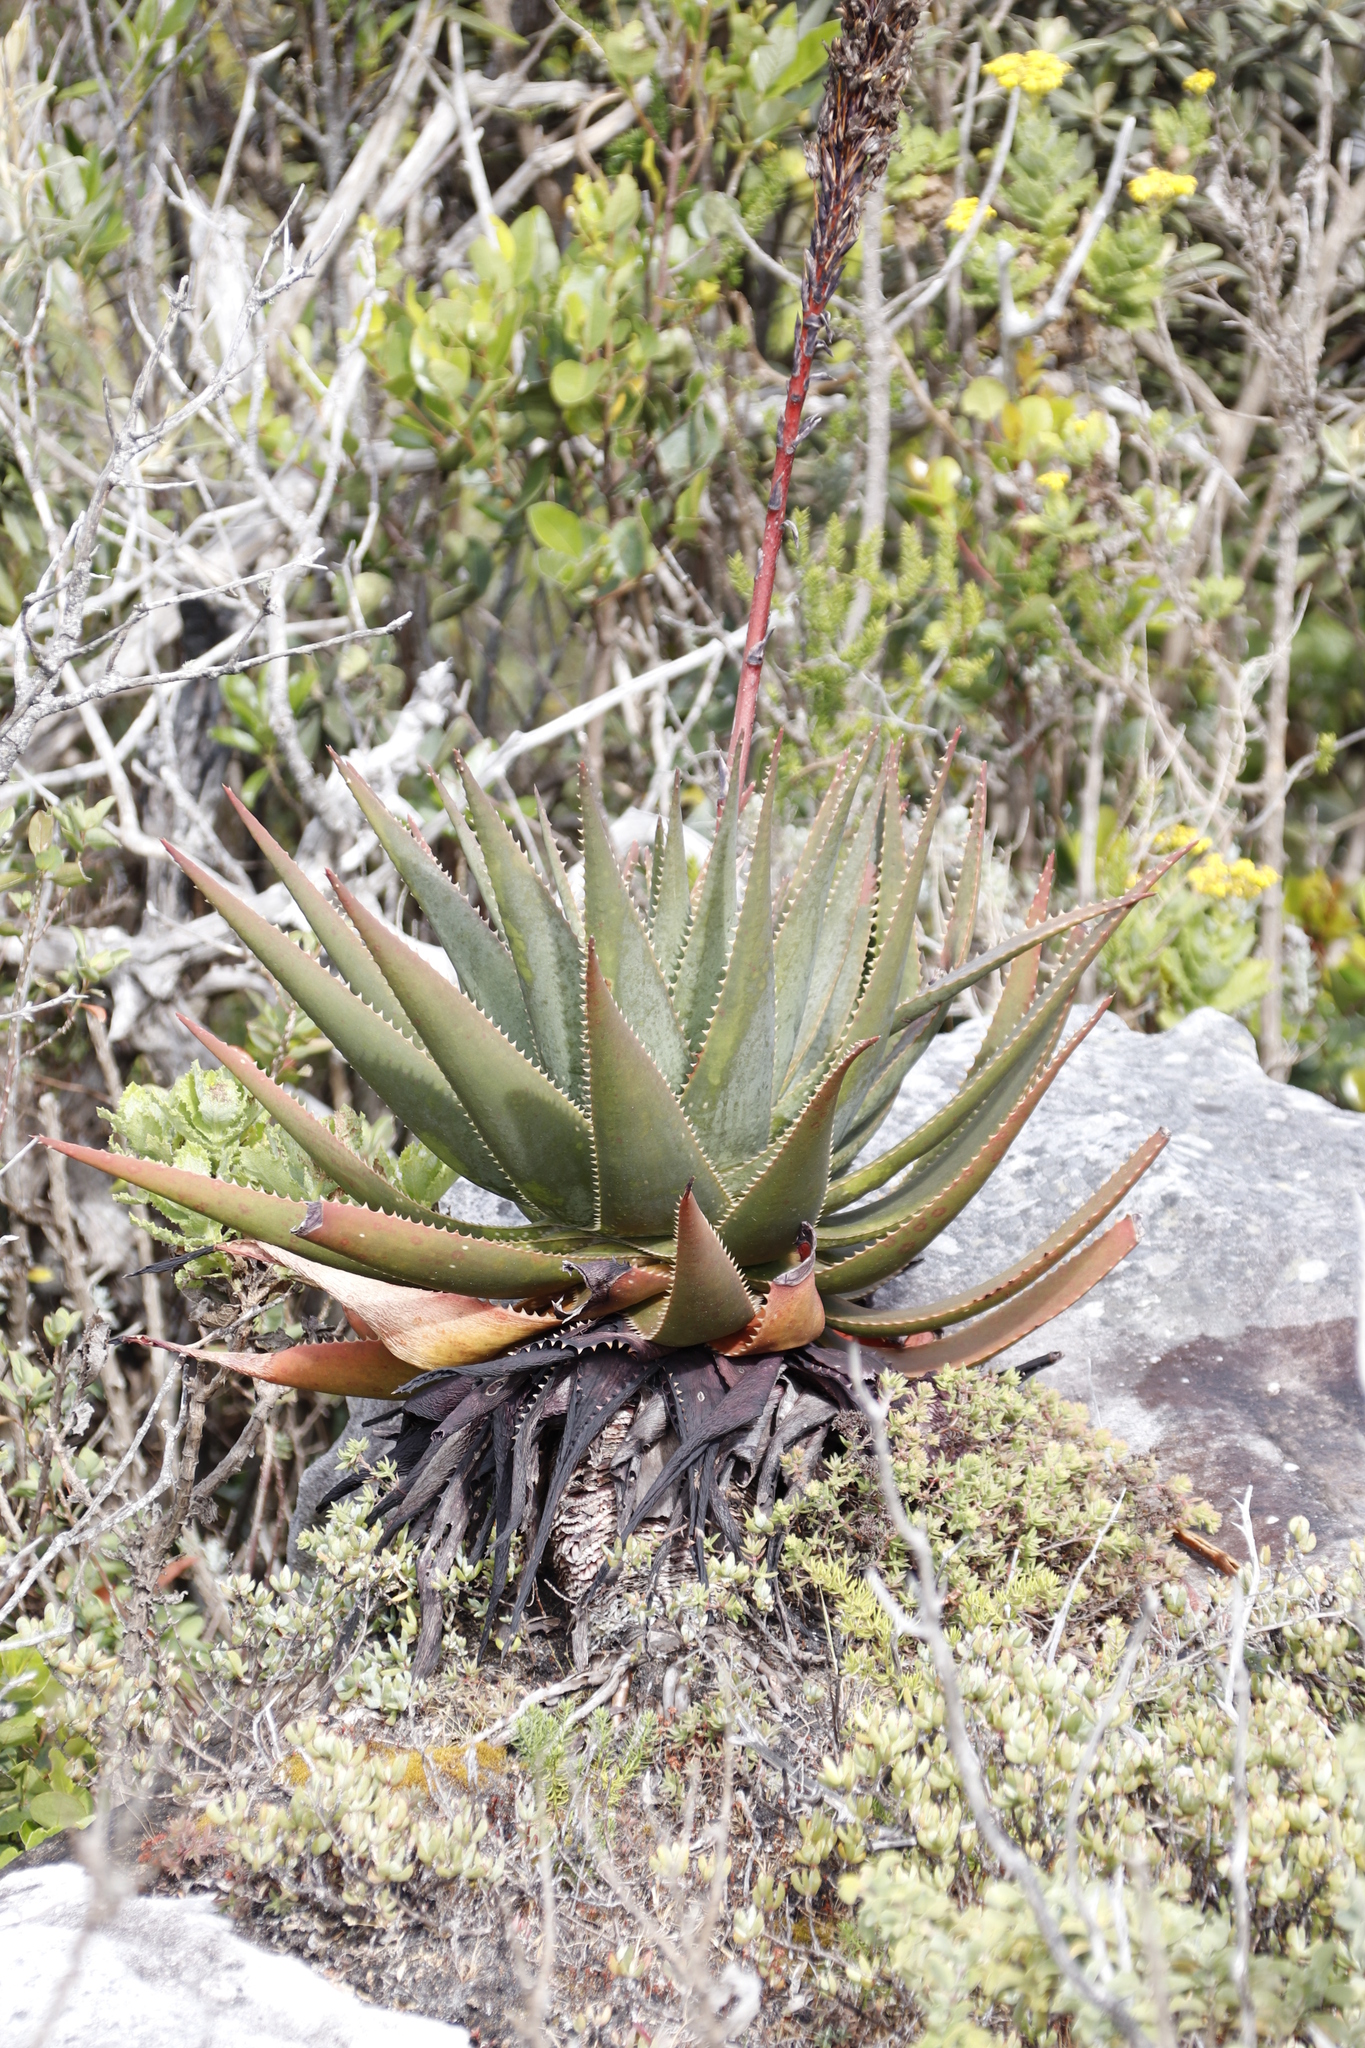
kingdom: Plantae
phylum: Tracheophyta
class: Liliopsida
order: Asparagales
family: Asphodelaceae
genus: Aloe
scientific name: Aloe succotrina
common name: Bombay aloe
